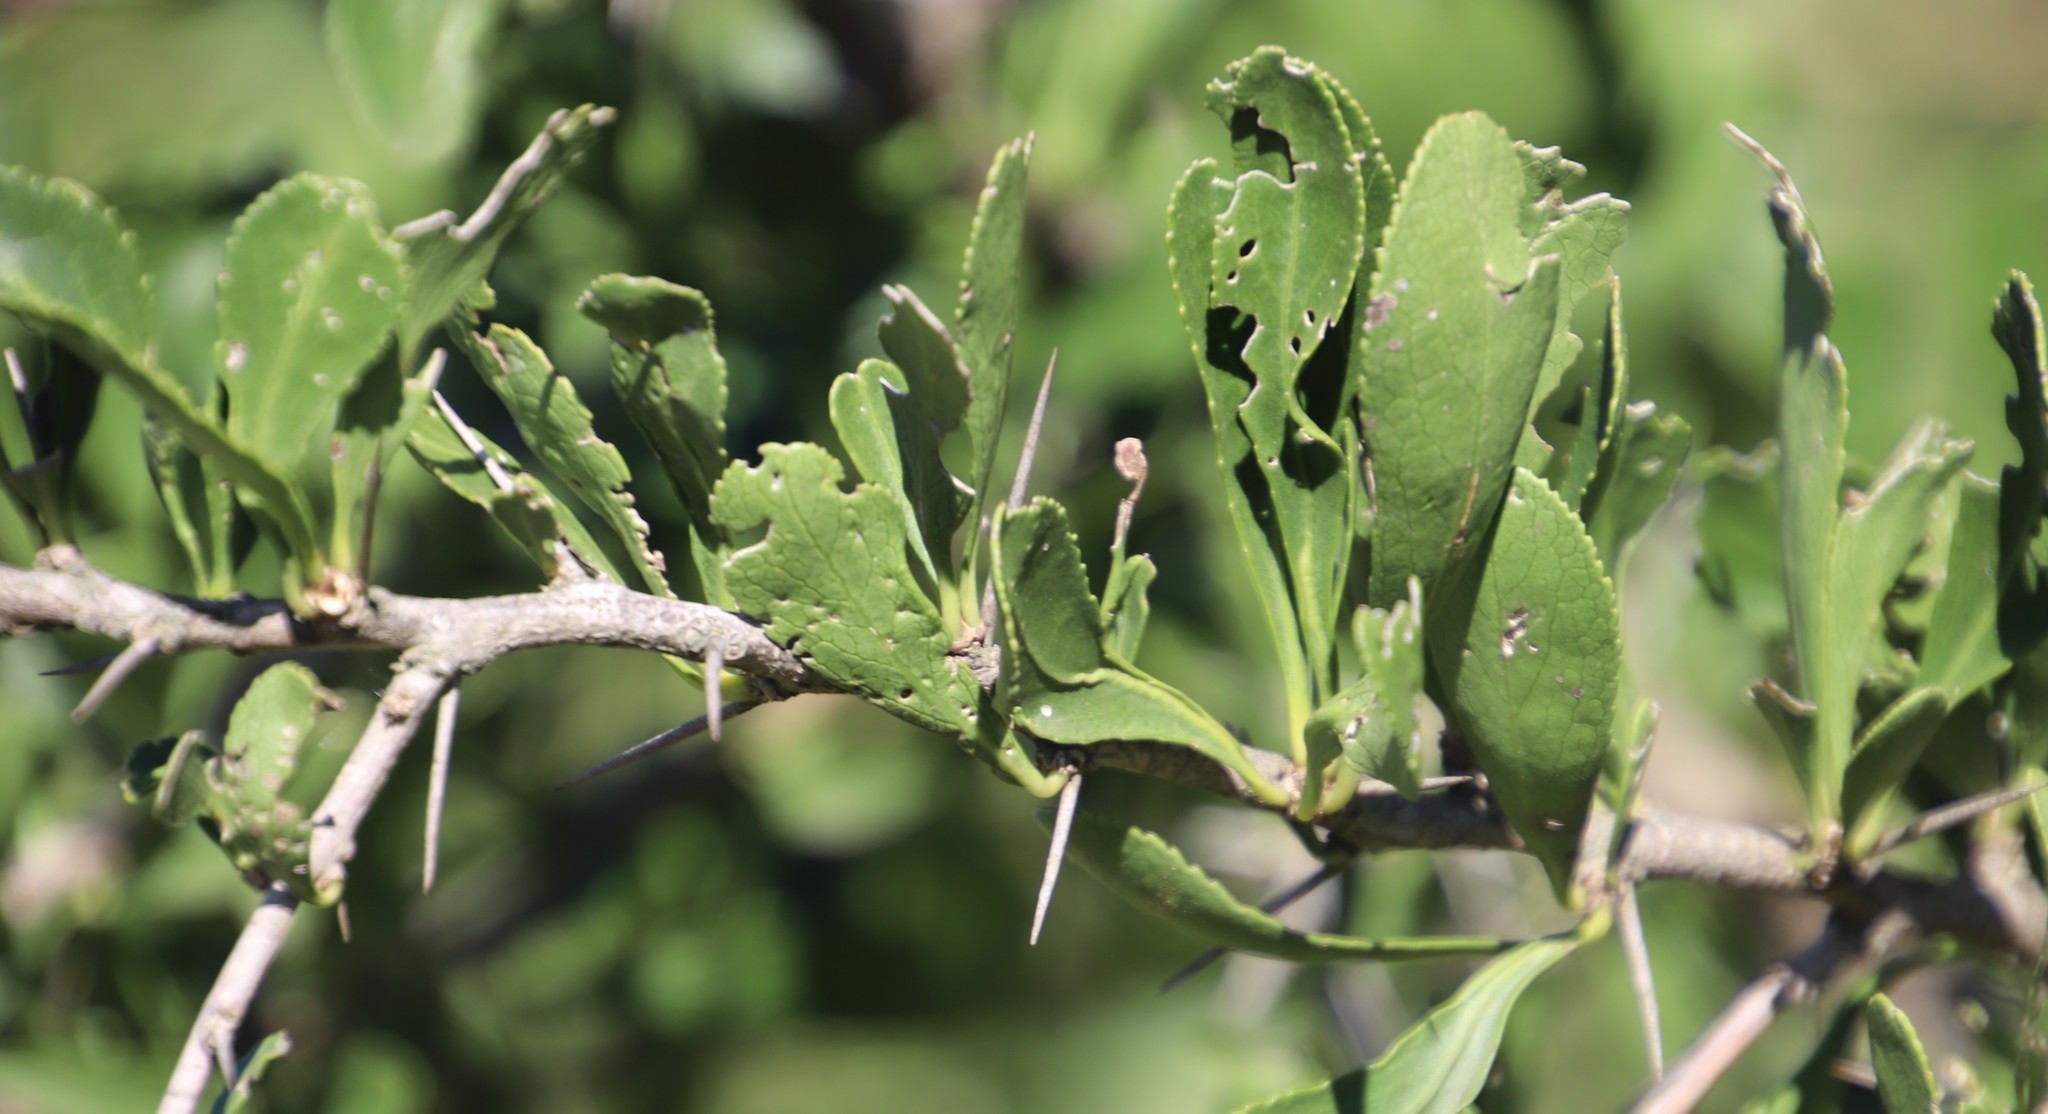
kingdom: Plantae
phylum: Tracheophyta
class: Magnoliopsida
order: Celastrales
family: Celastraceae
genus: Gymnosporia
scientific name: Gymnosporia buxifolia
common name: Common spike-thorn
